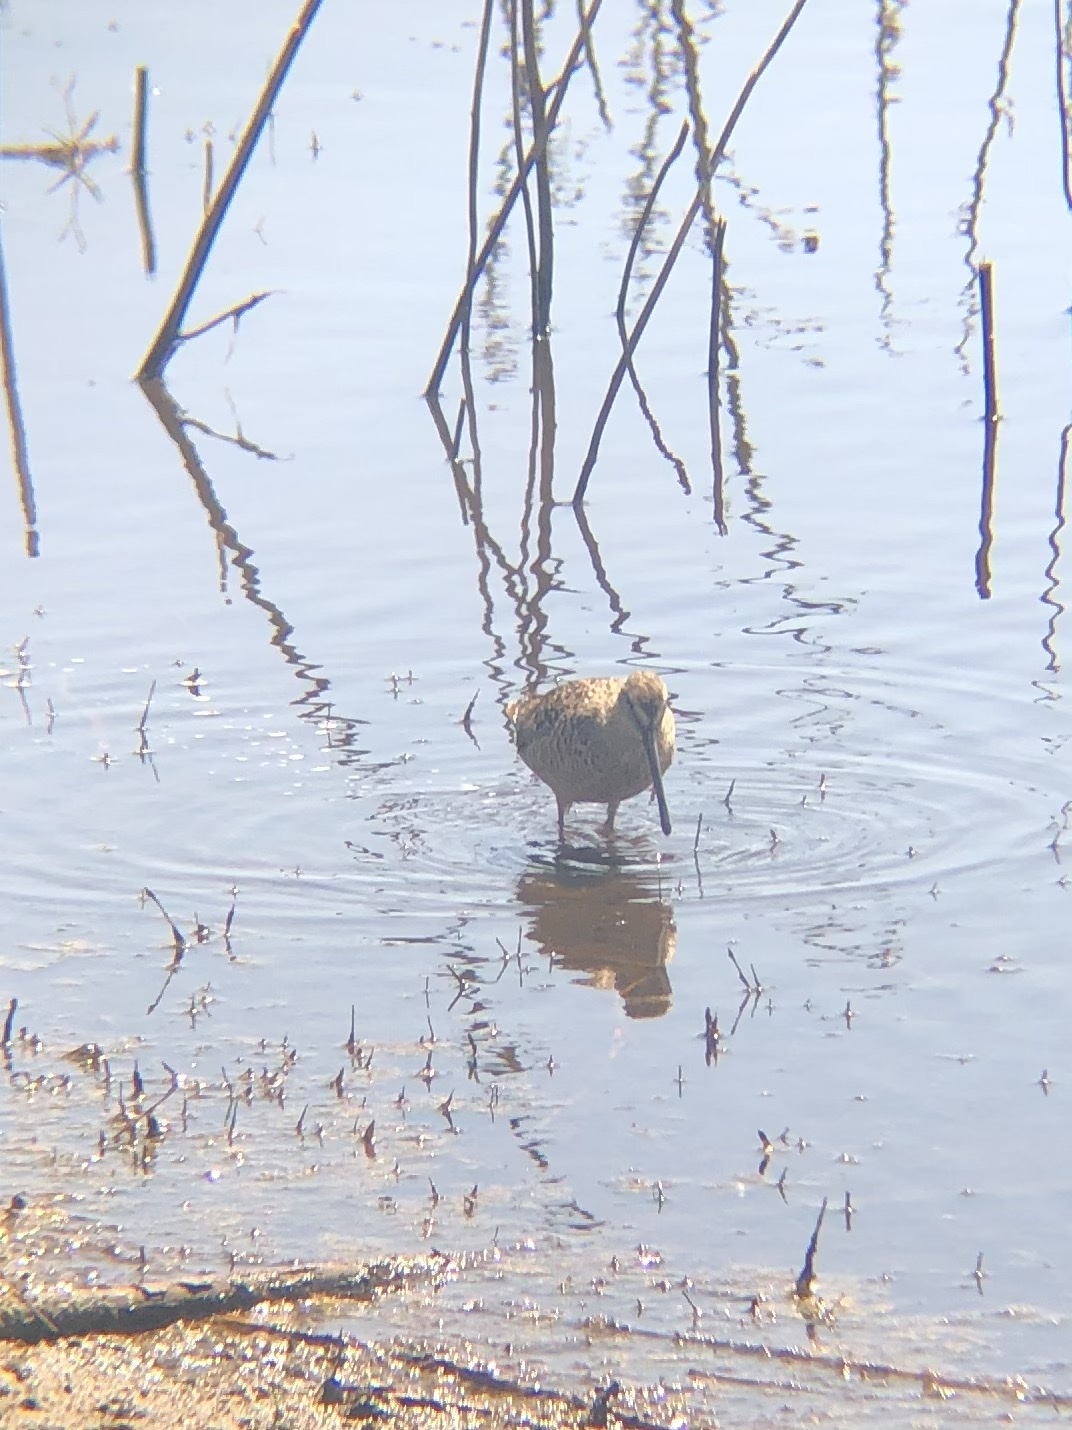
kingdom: Animalia
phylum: Chordata
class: Aves
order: Charadriiformes
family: Scolopacidae
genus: Limnodromus
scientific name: Limnodromus scolopaceus
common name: Long-billed dowitcher
